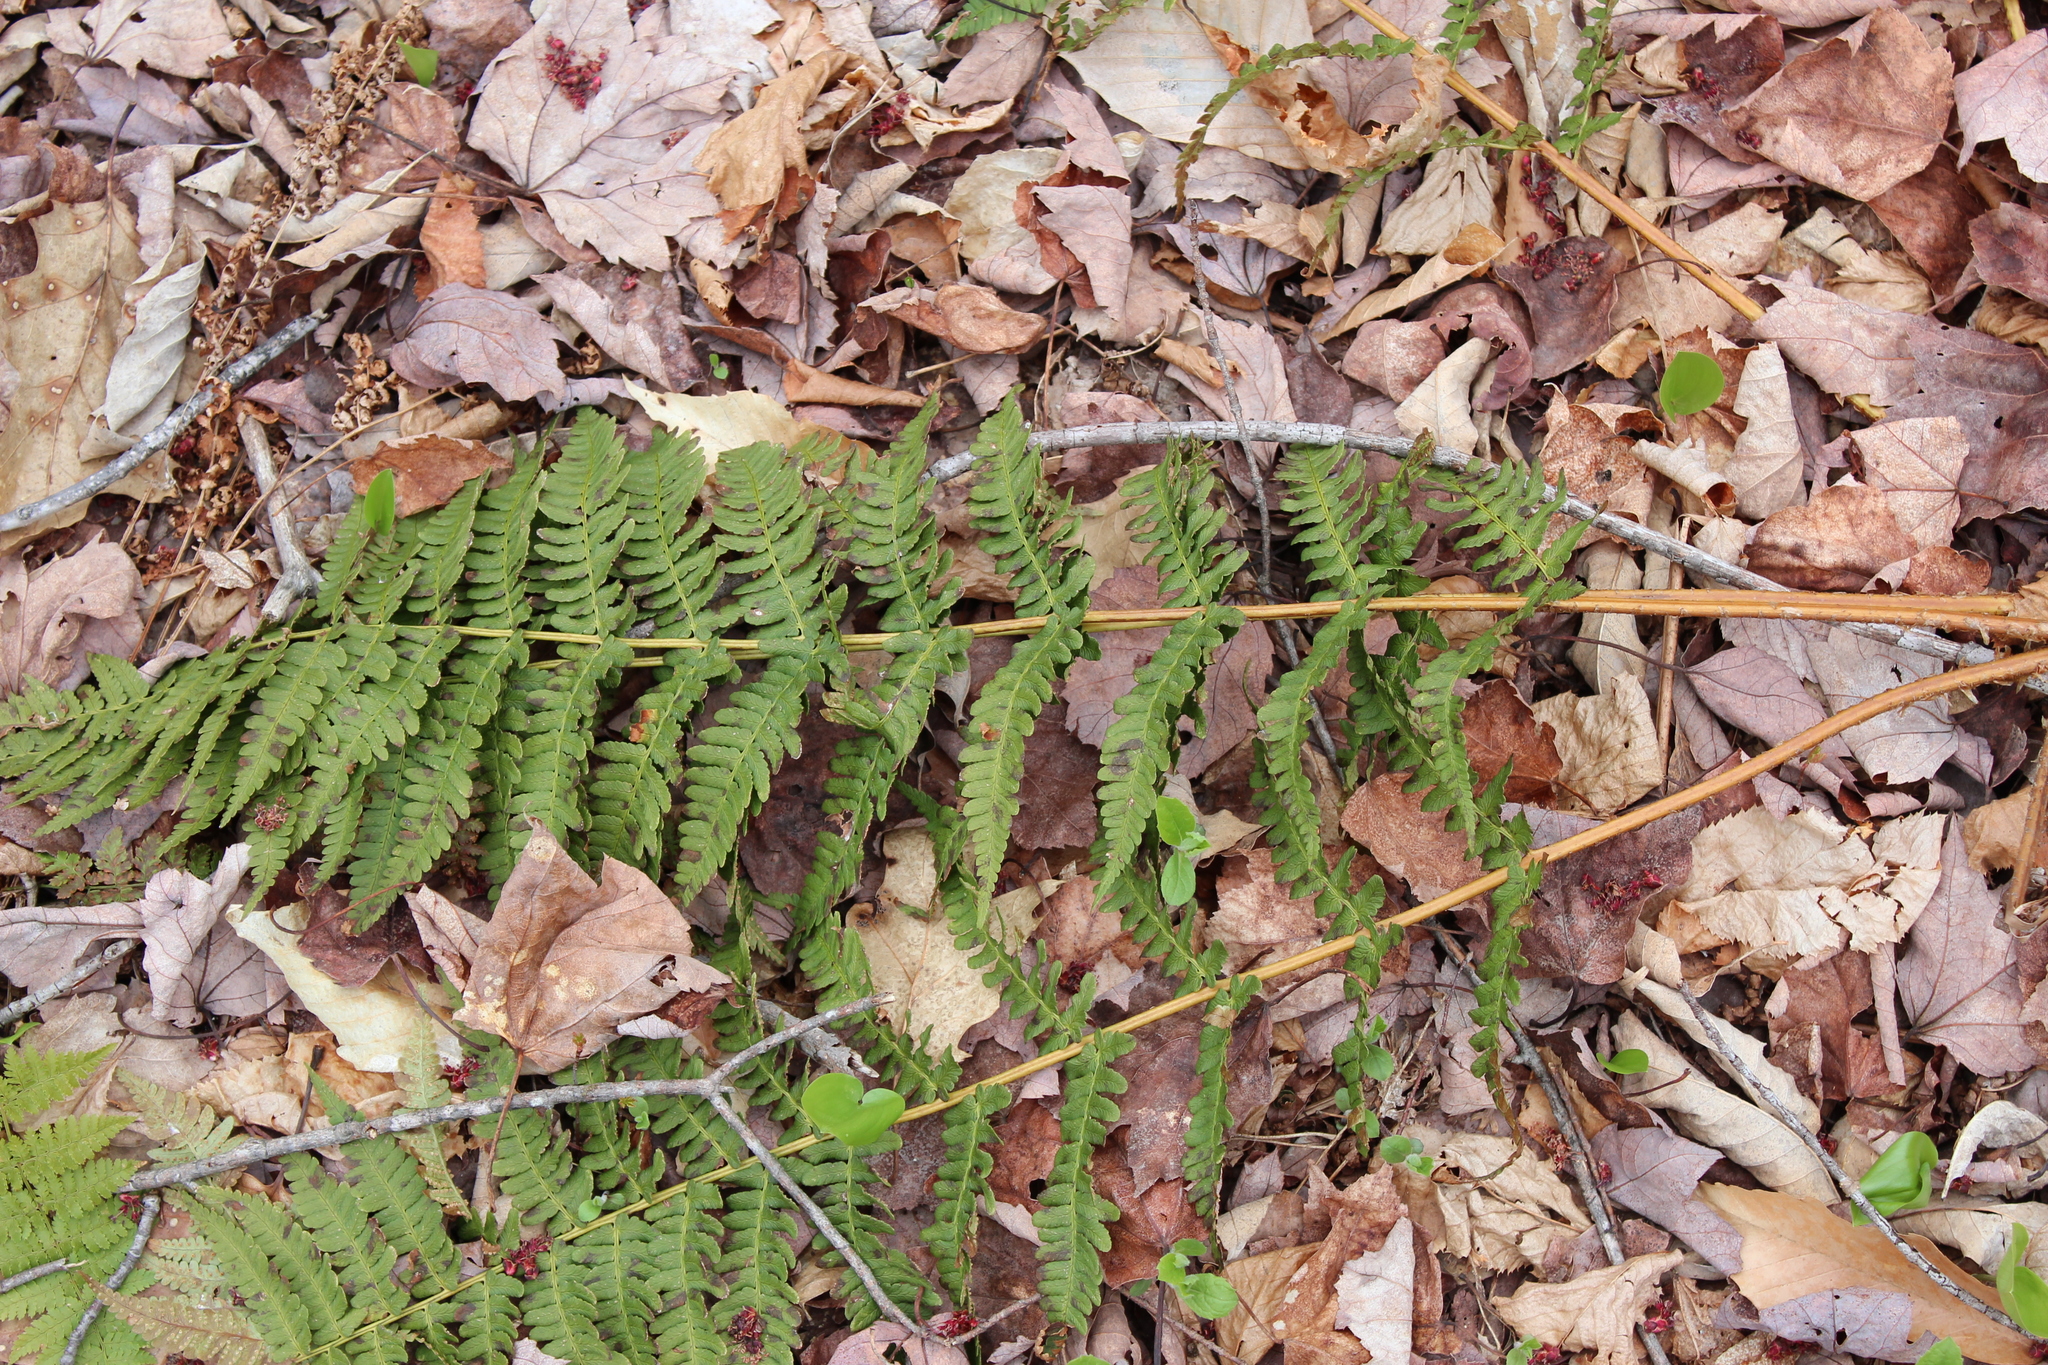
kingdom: Plantae
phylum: Tracheophyta
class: Polypodiopsida
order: Polypodiales
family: Dryopteridaceae
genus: Dryopteris
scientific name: Dryopteris marginalis
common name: Marginal wood fern
